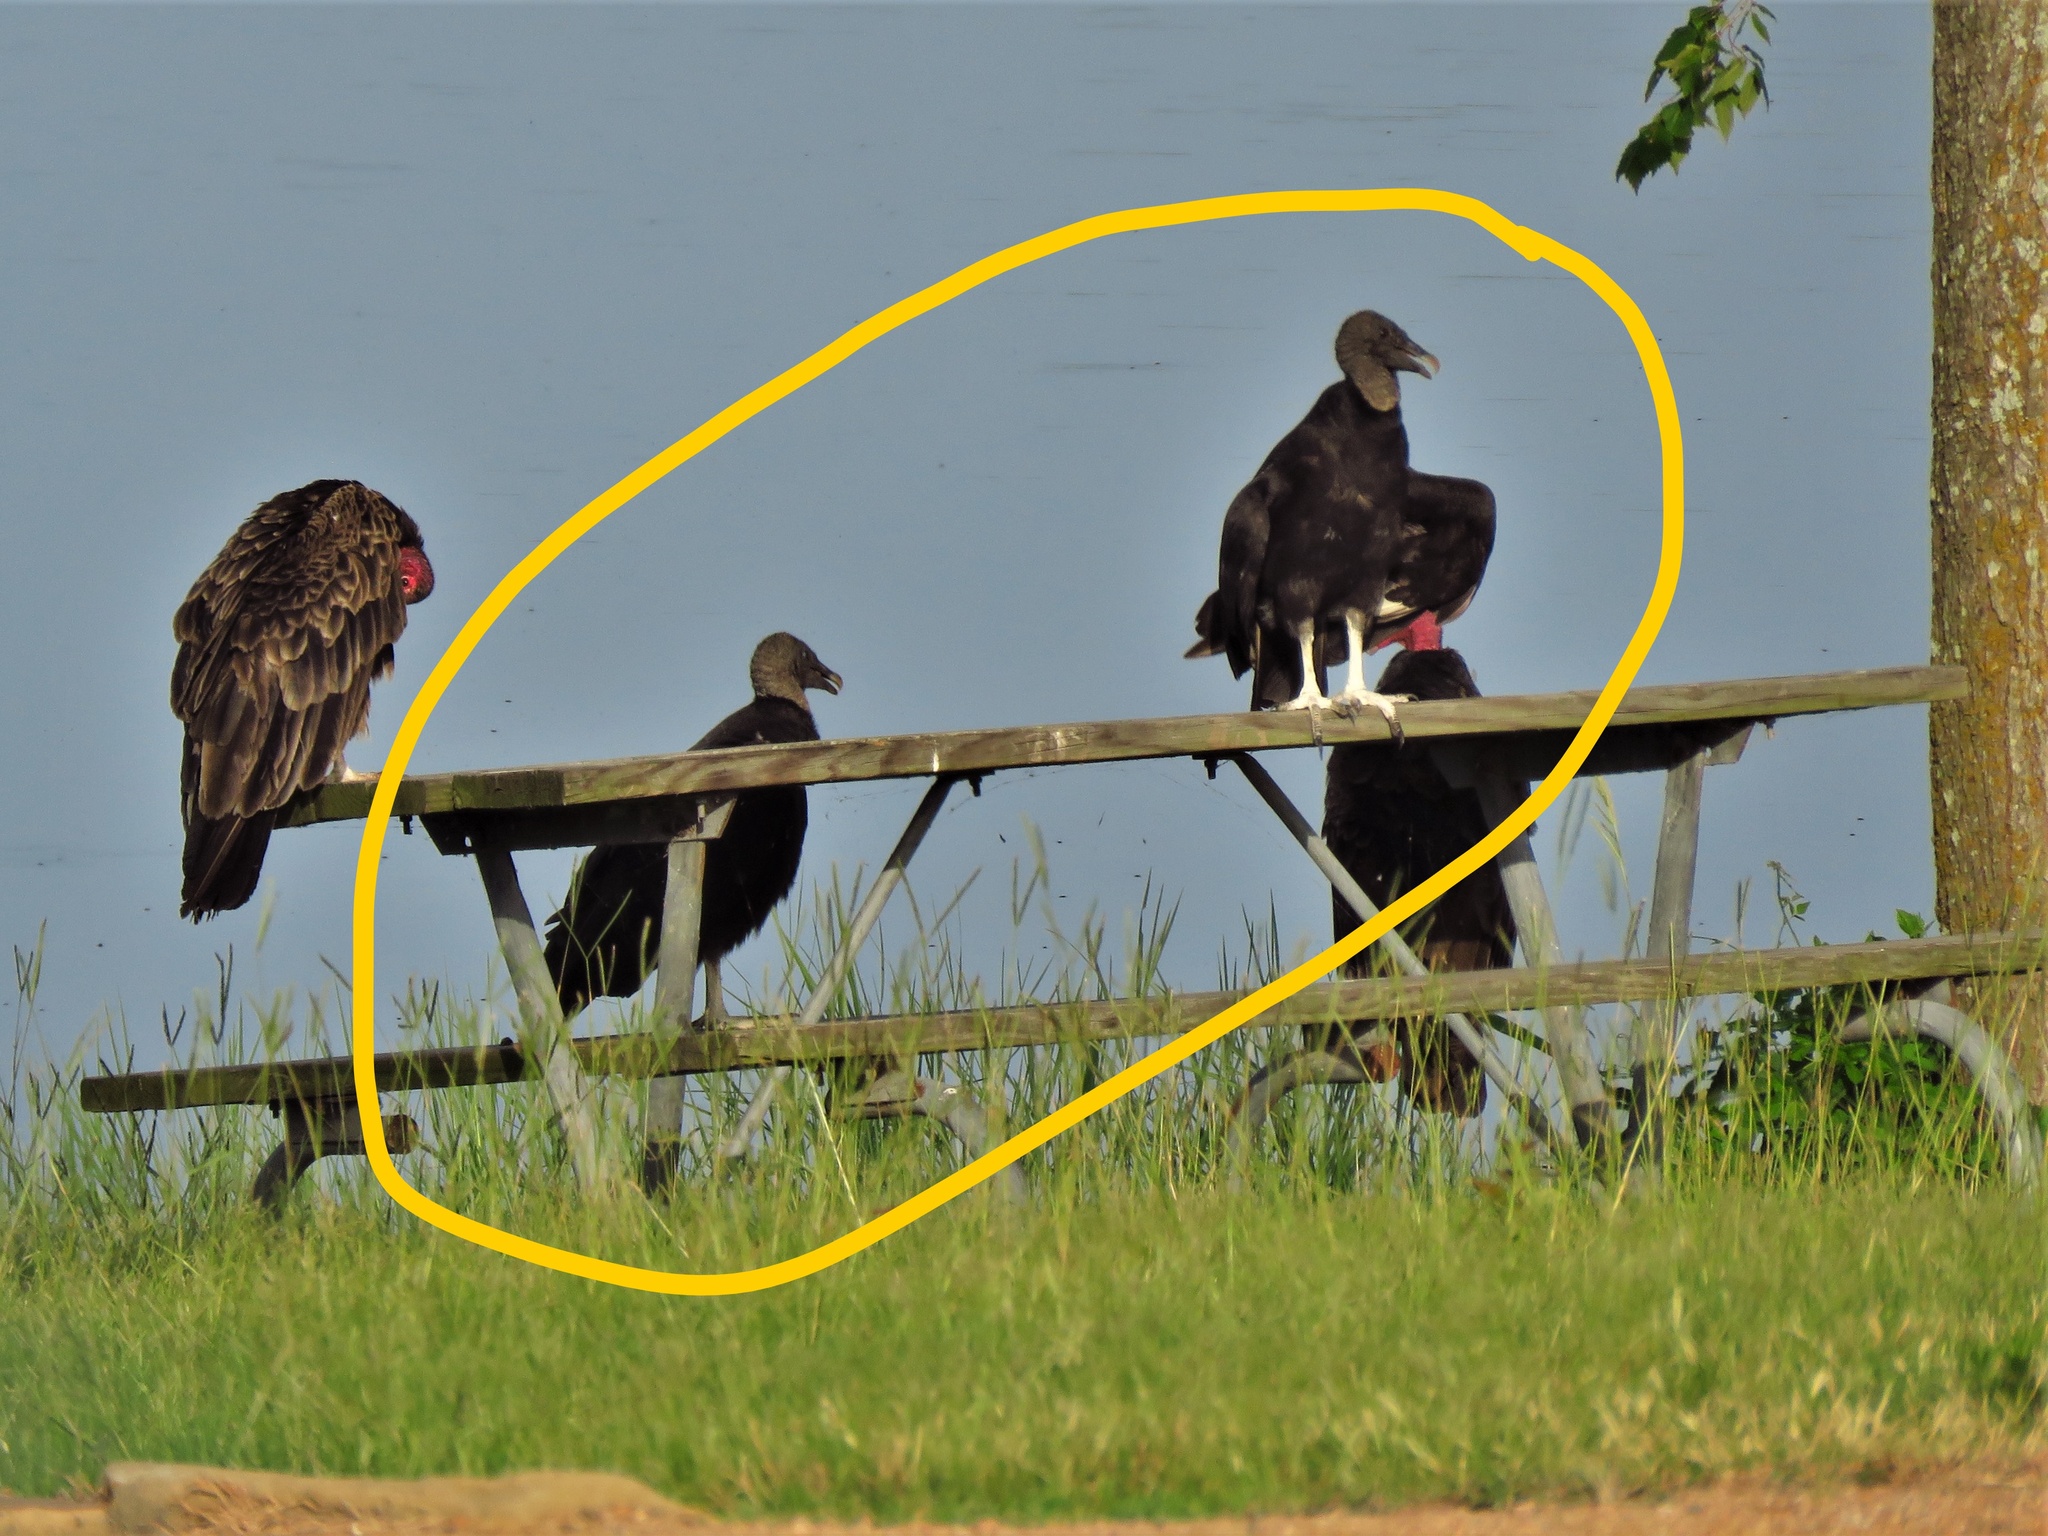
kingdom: Animalia
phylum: Chordata
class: Aves
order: Accipitriformes
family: Cathartidae
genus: Coragyps
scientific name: Coragyps atratus
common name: Black vulture
